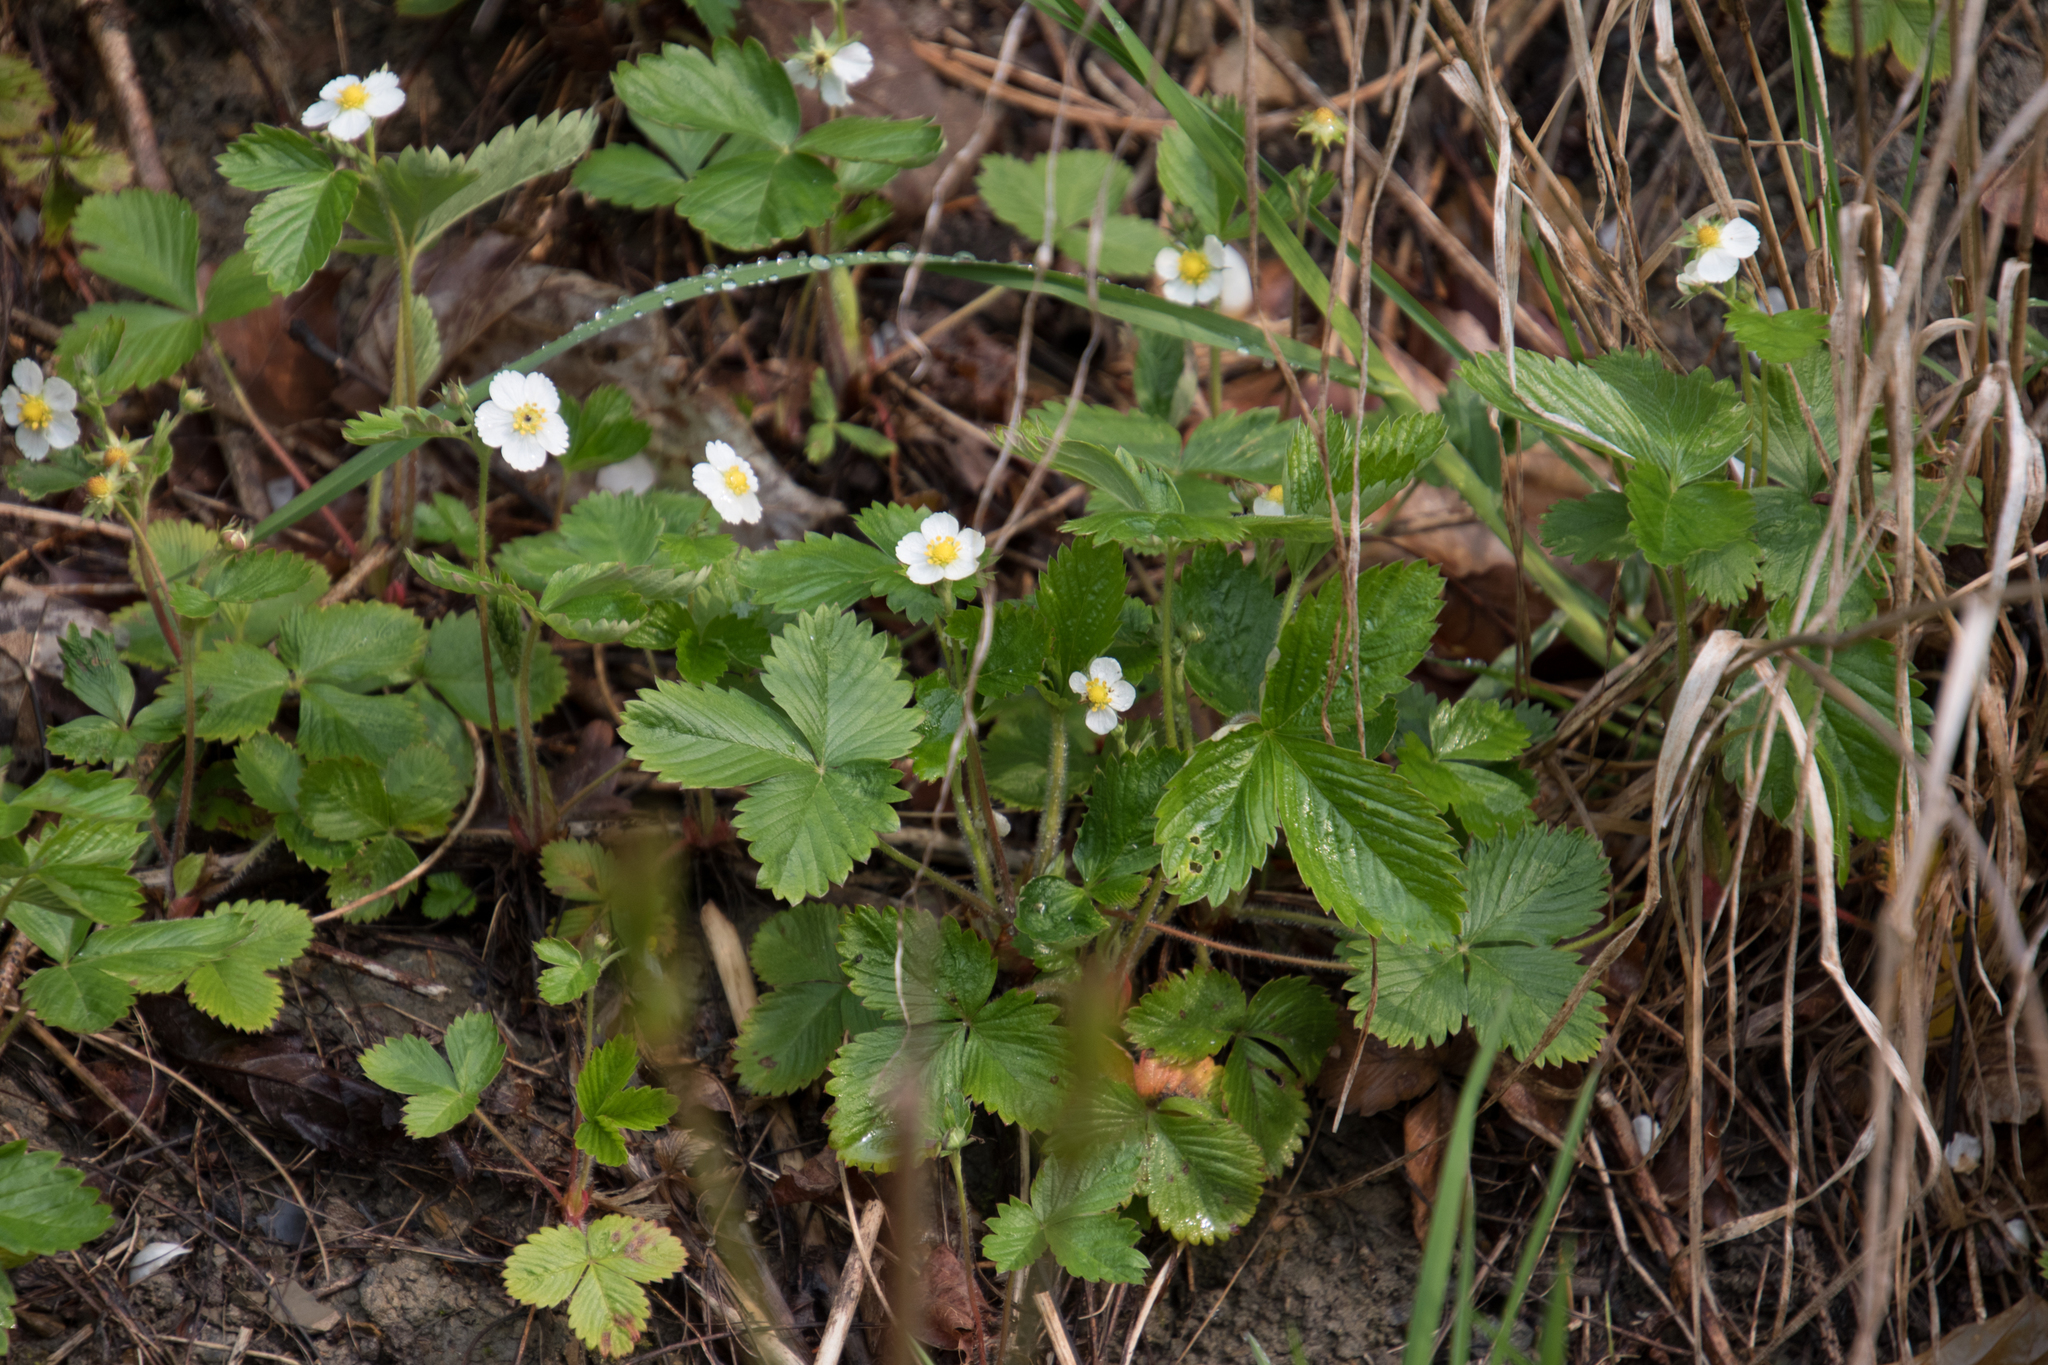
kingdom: Plantae
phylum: Tracheophyta
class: Magnoliopsida
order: Rosales
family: Rosaceae
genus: Fragaria
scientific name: Fragaria vesca
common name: Wild strawberry
